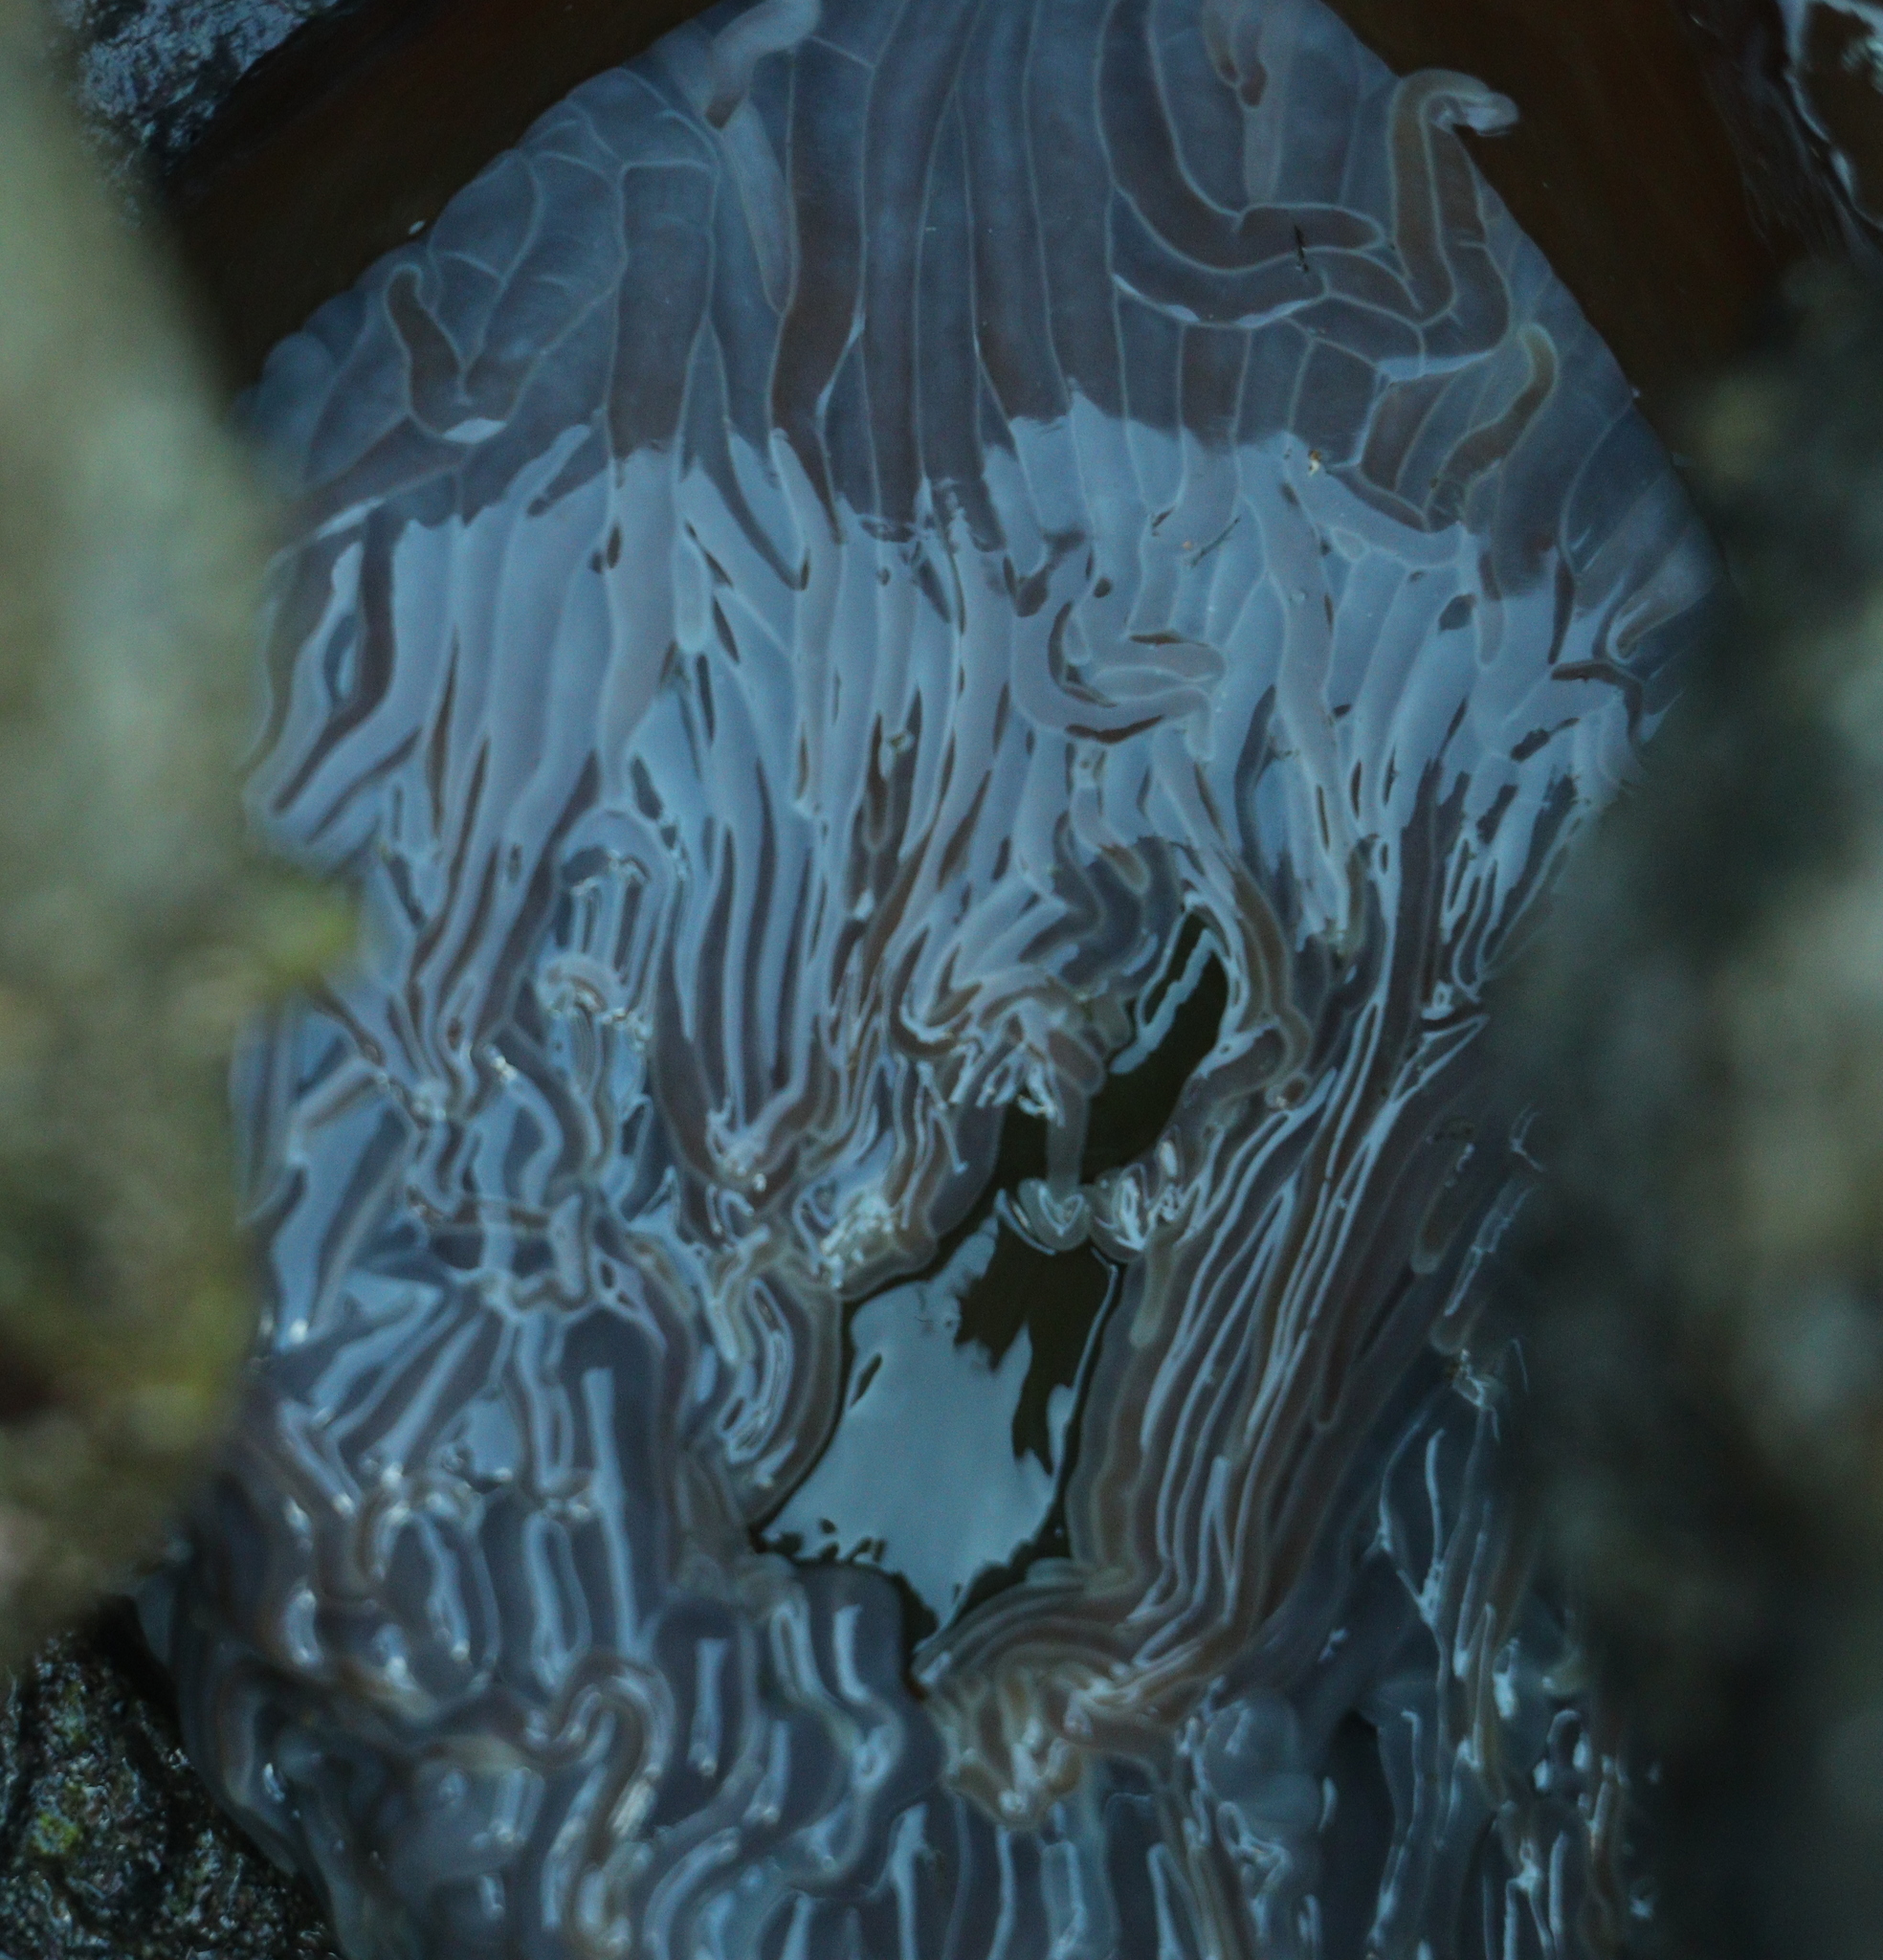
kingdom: Animalia
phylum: Cnidaria
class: Anthozoa
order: Actiniaria
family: Actiniidae
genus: Anemonia
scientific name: Anemonia viridis
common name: Snakelocks anemone
